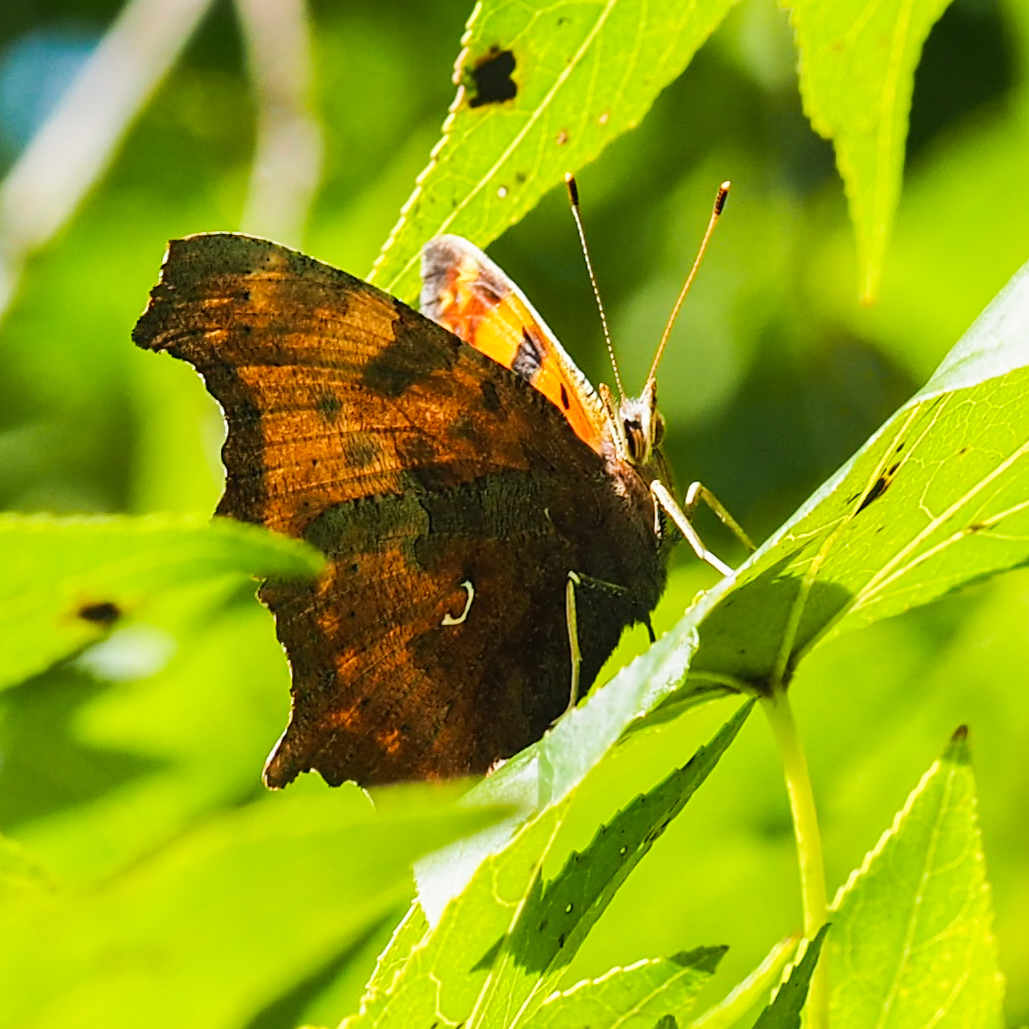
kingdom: Animalia
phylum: Arthropoda
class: Insecta
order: Lepidoptera
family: Nymphalidae
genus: Polygonia
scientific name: Polygonia comma
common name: Eastern comma
